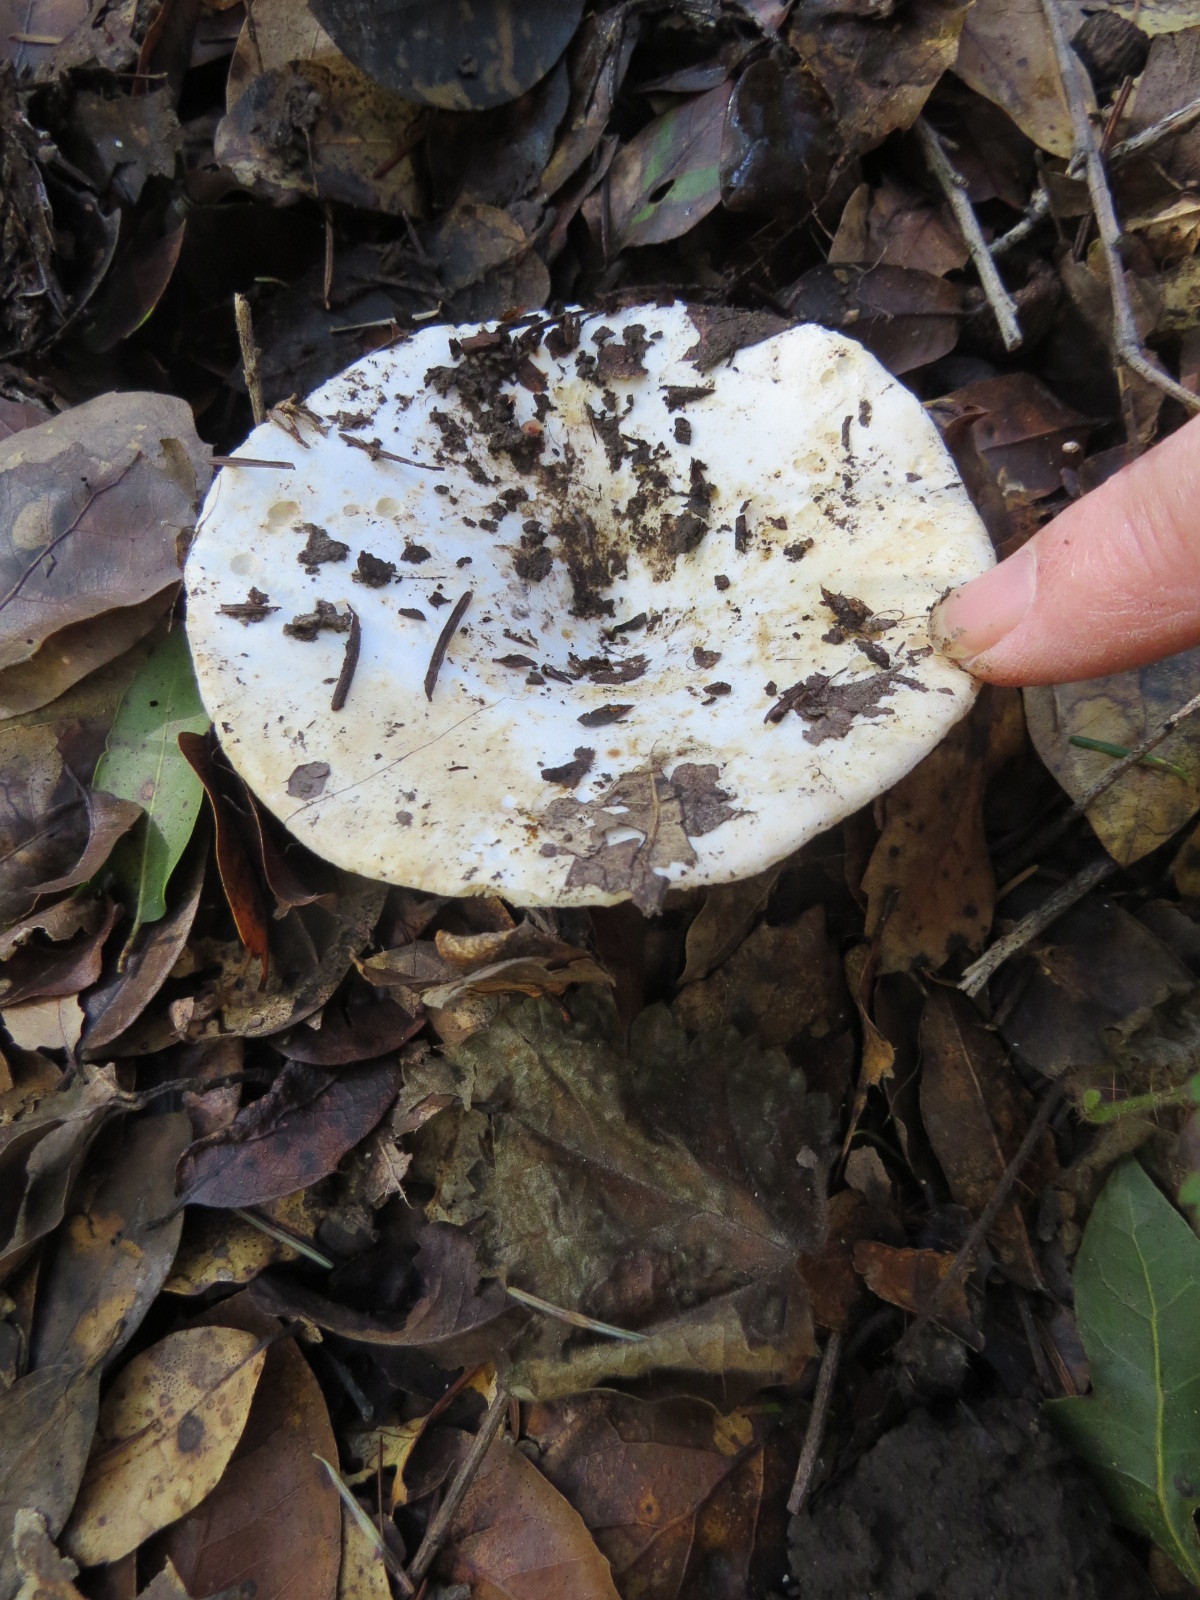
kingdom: Fungi
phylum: Basidiomycota
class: Agaricomycetes
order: Russulales
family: Russulaceae
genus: Russula
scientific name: Russula brevipes
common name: Short-stemmed russula
